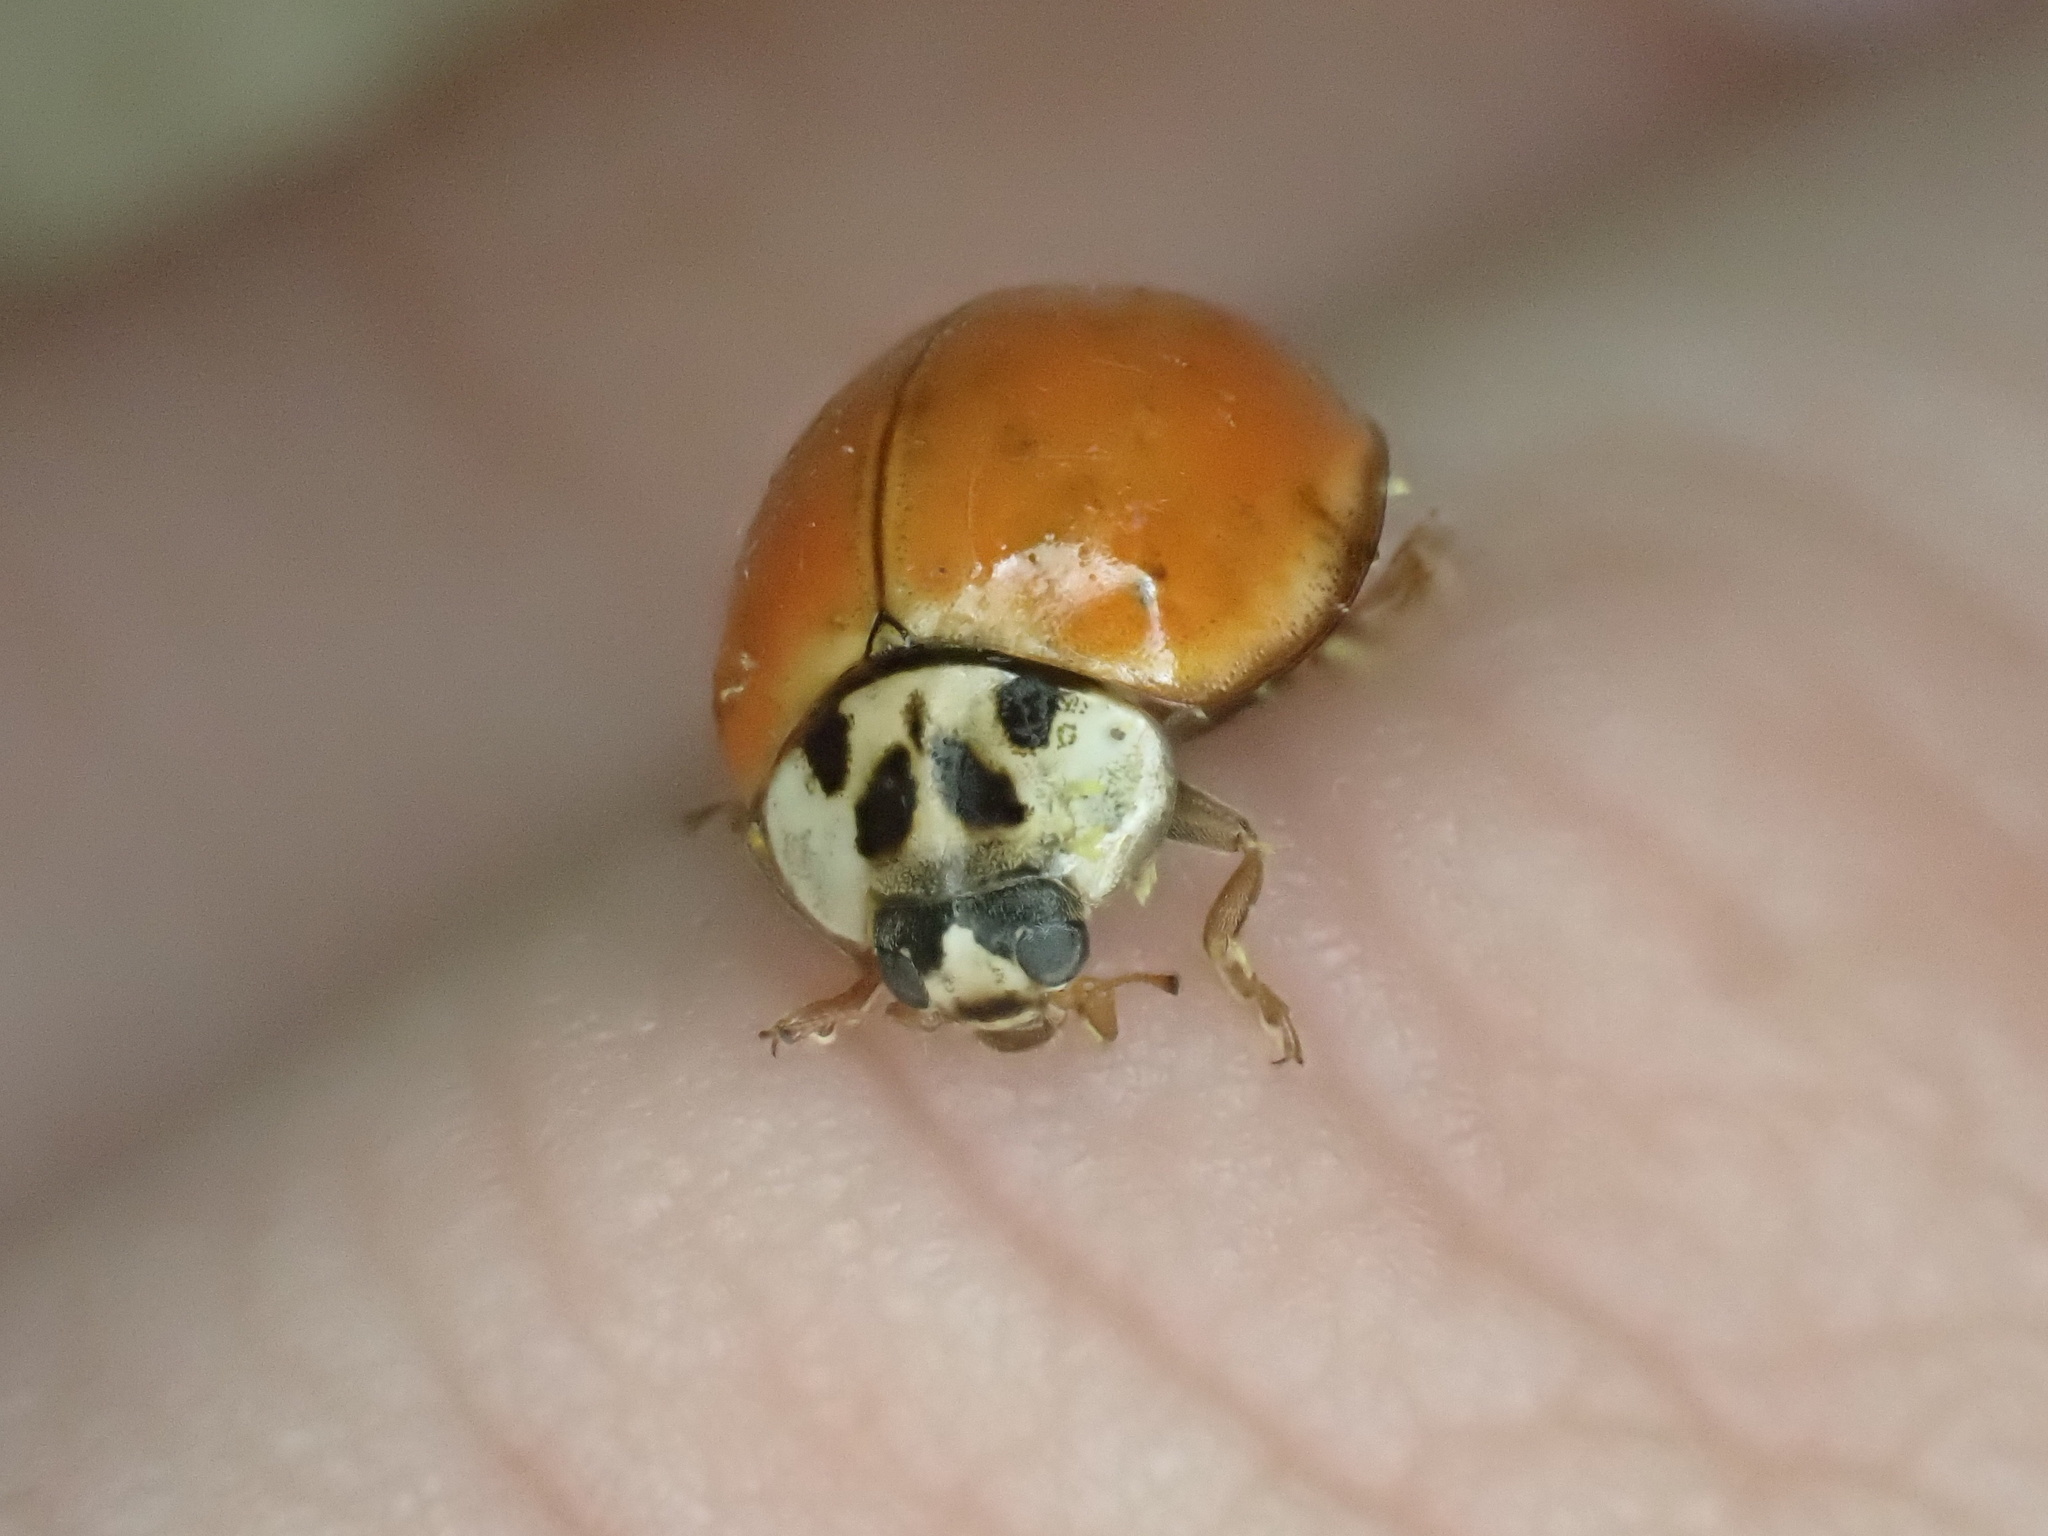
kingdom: Animalia
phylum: Arthropoda
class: Insecta
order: Coleoptera
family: Coccinellidae
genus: Harmonia
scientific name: Harmonia axyridis
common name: Harlequin ladybird
